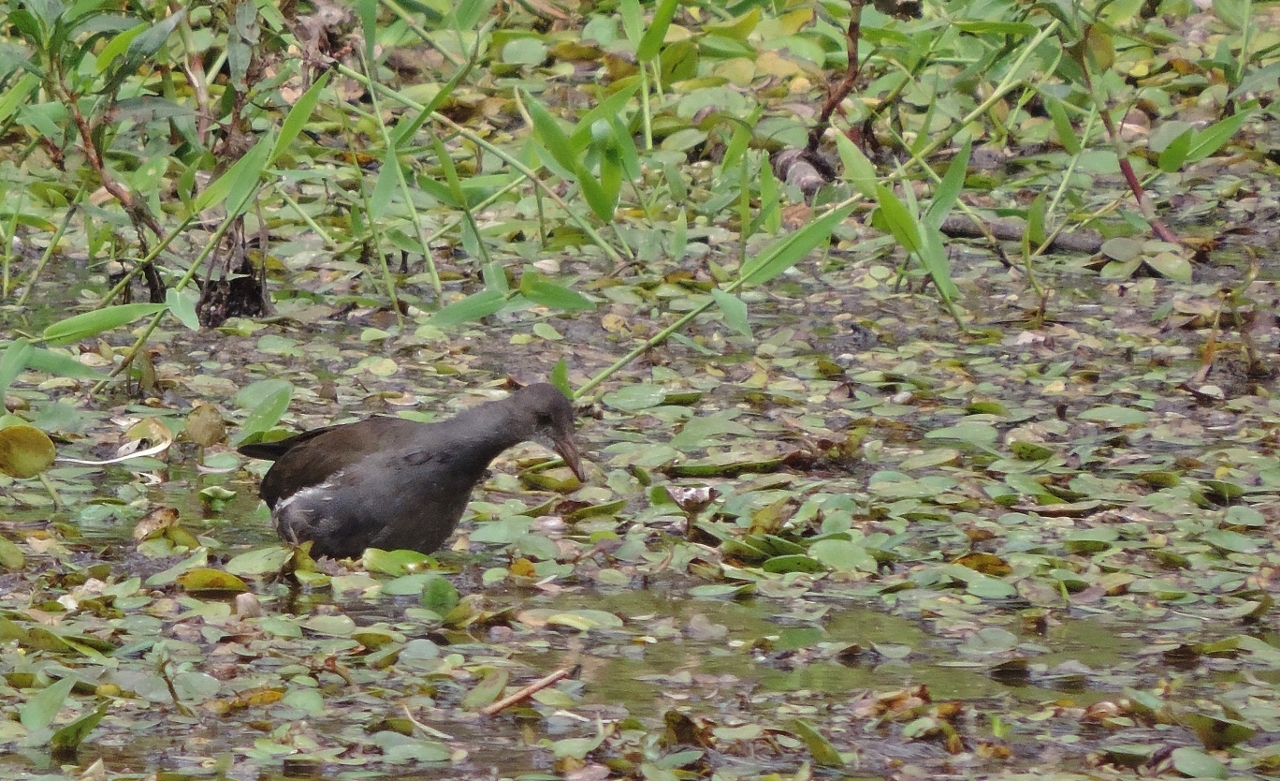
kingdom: Animalia
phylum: Chordata
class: Aves
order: Gruiformes
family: Rallidae
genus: Gallinula
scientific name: Gallinula chloropus
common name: Common moorhen
